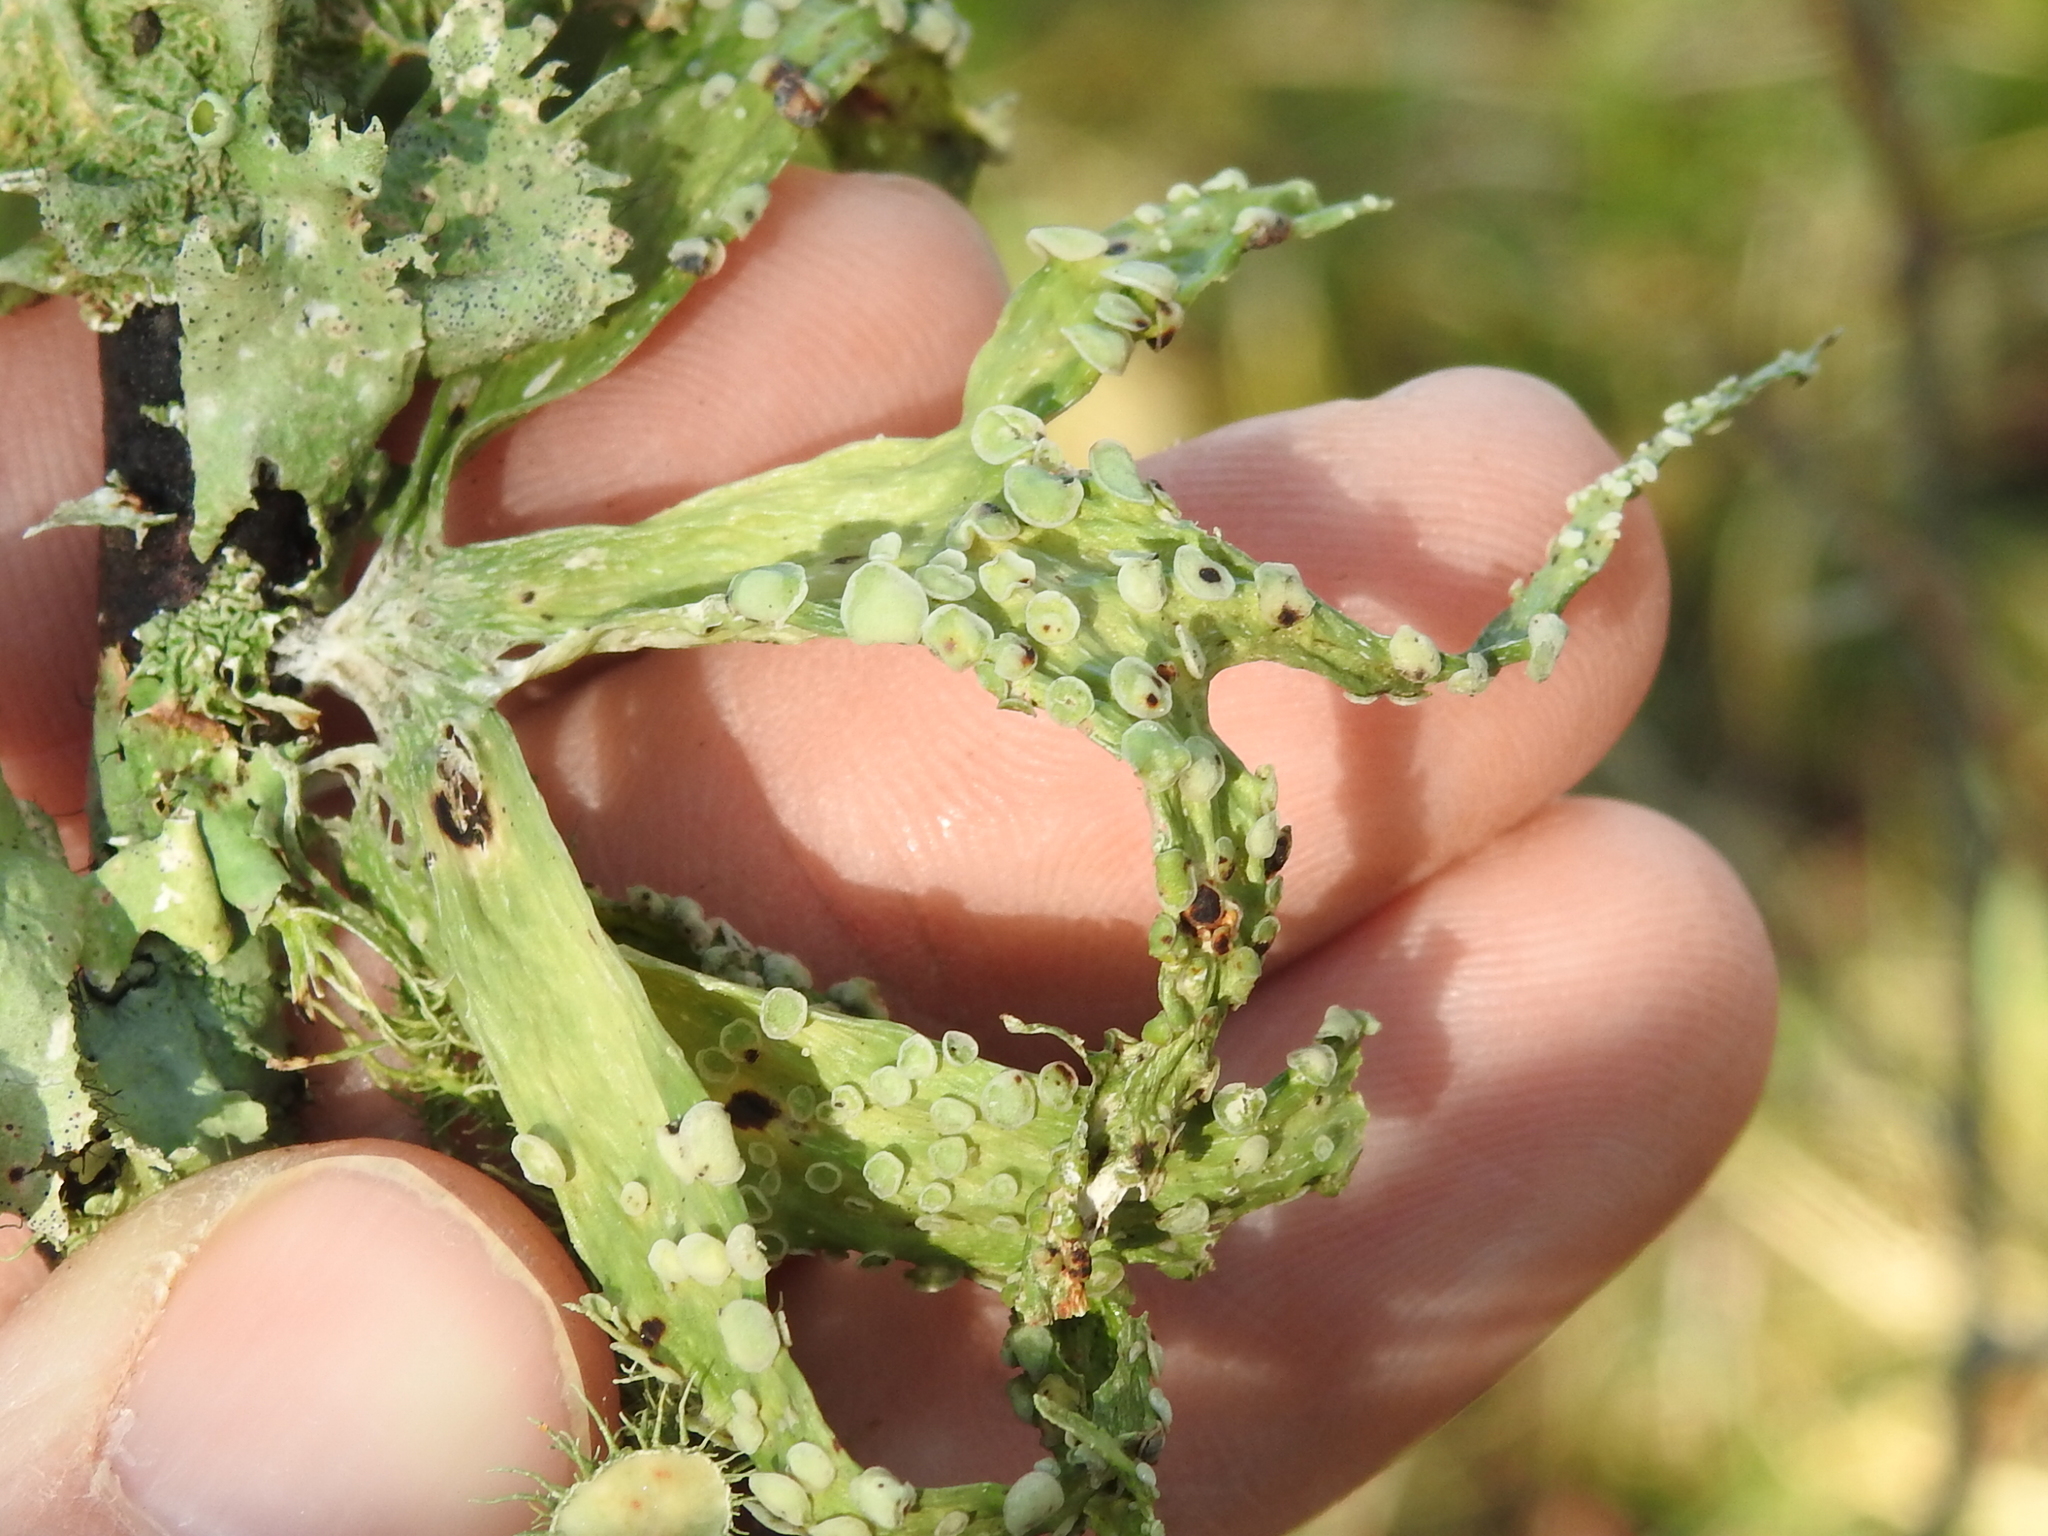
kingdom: Fungi
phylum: Ascomycota
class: Lecanoromycetes
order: Lecanorales
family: Ramalinaceae
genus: Ramalina
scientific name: Ramalina celastri
